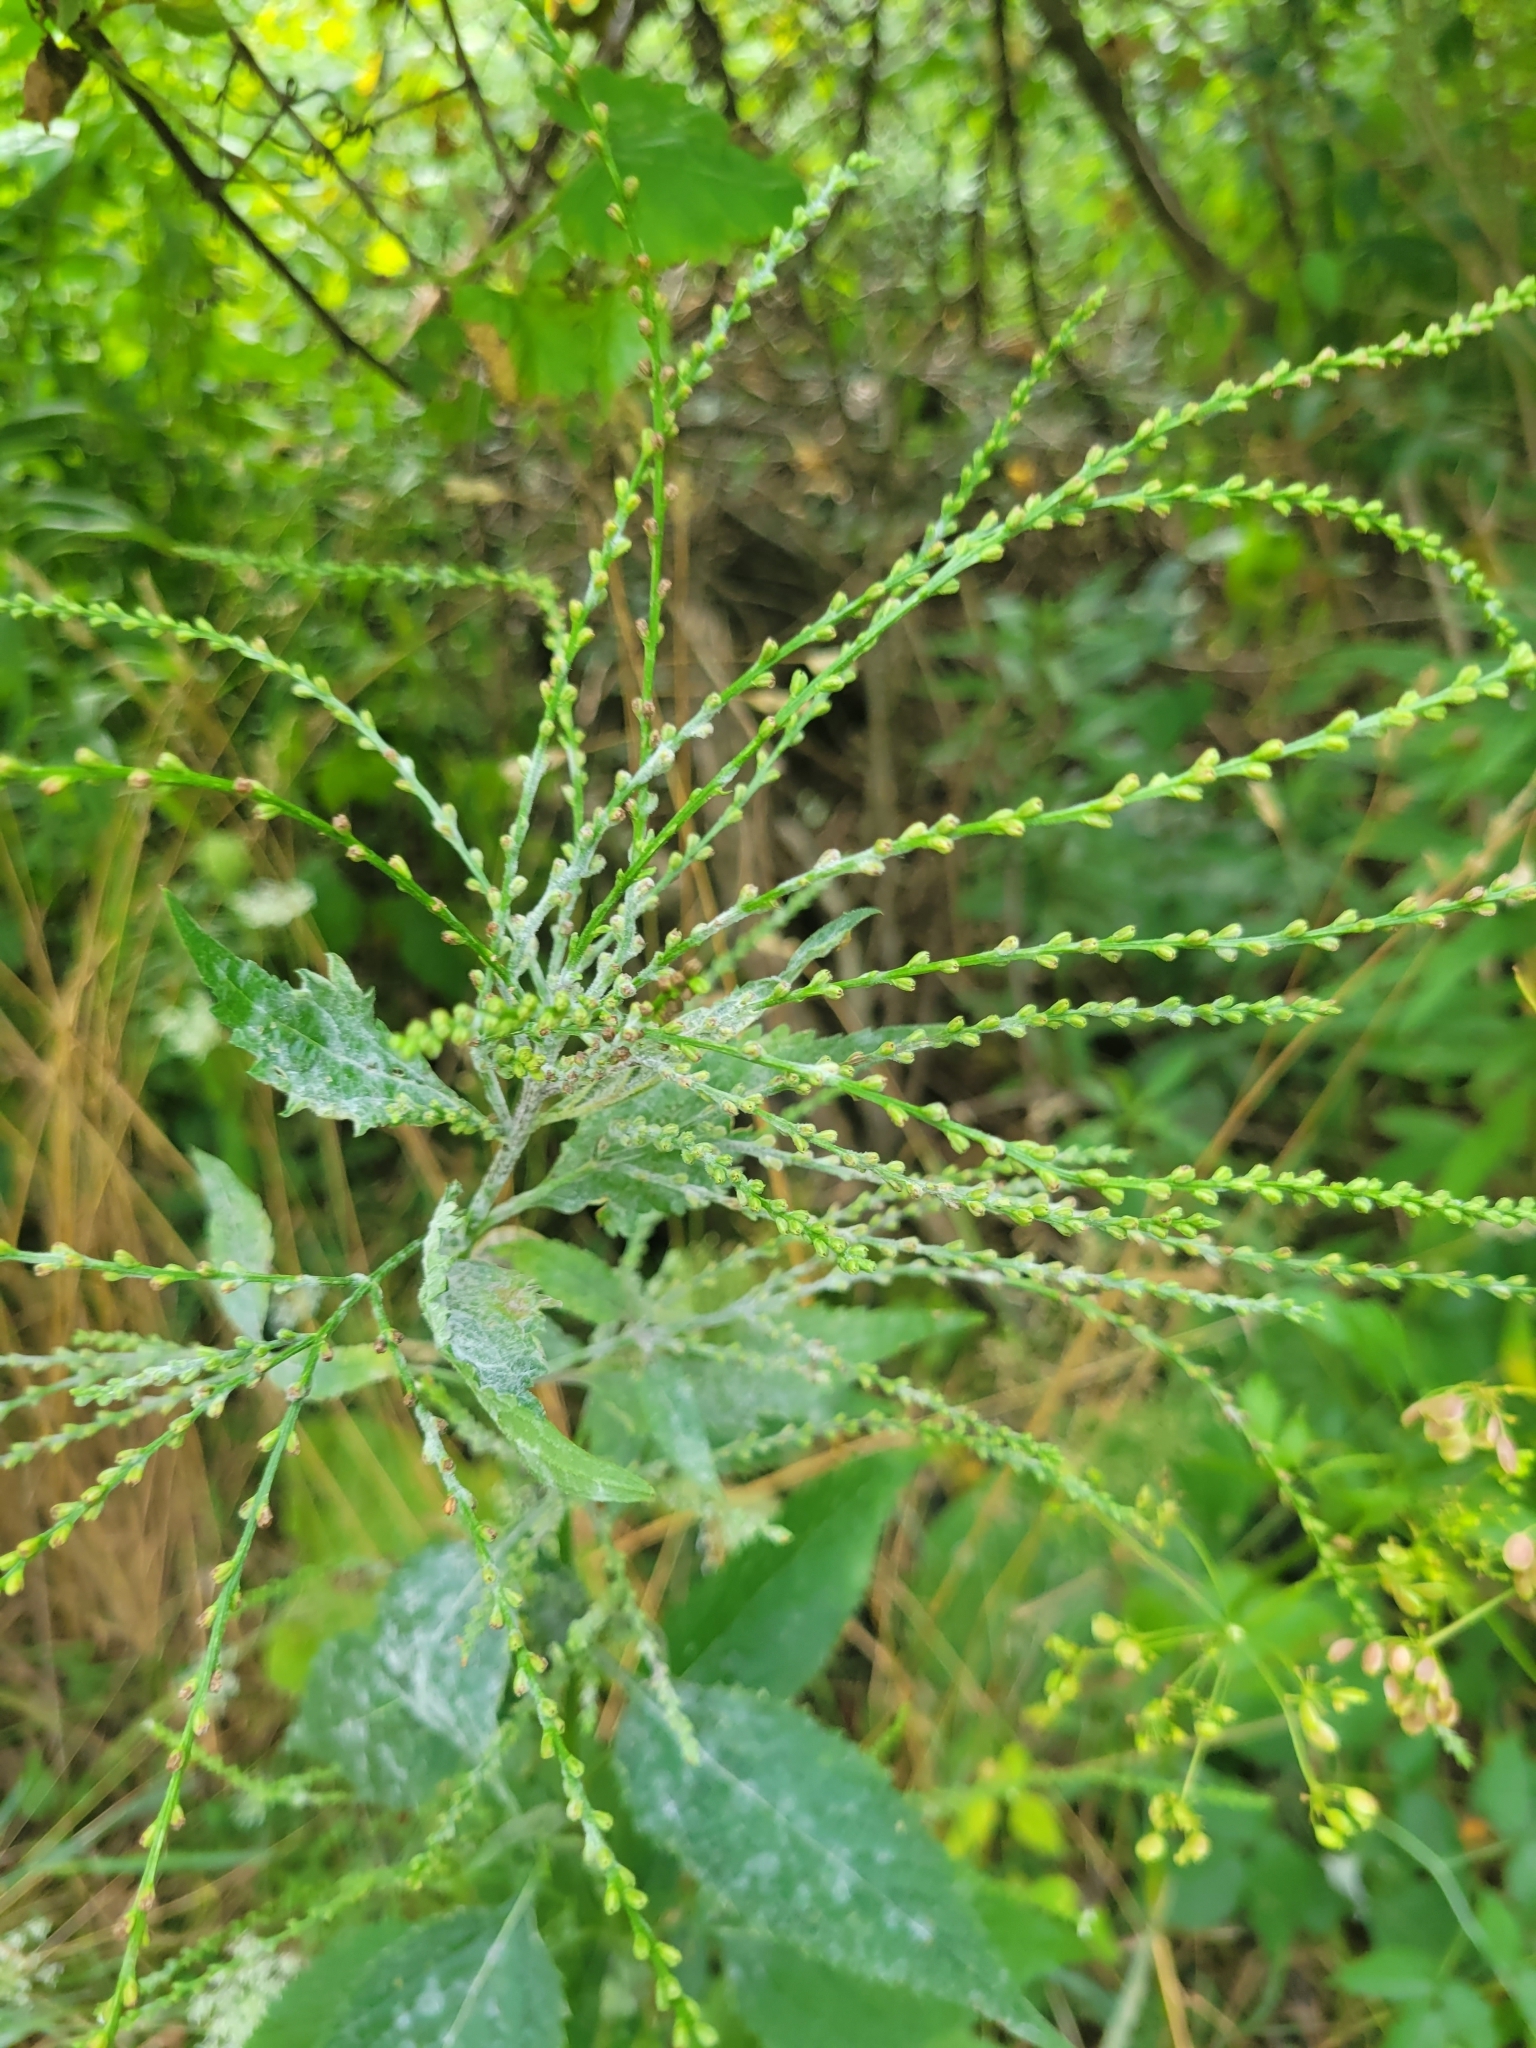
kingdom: Plantae
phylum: Tracheophyta
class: Magnoliopsida
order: Lamiales
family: Verbenaceae
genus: Verbena
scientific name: Verbena urticifolia
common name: Nettle-leaved vervain
